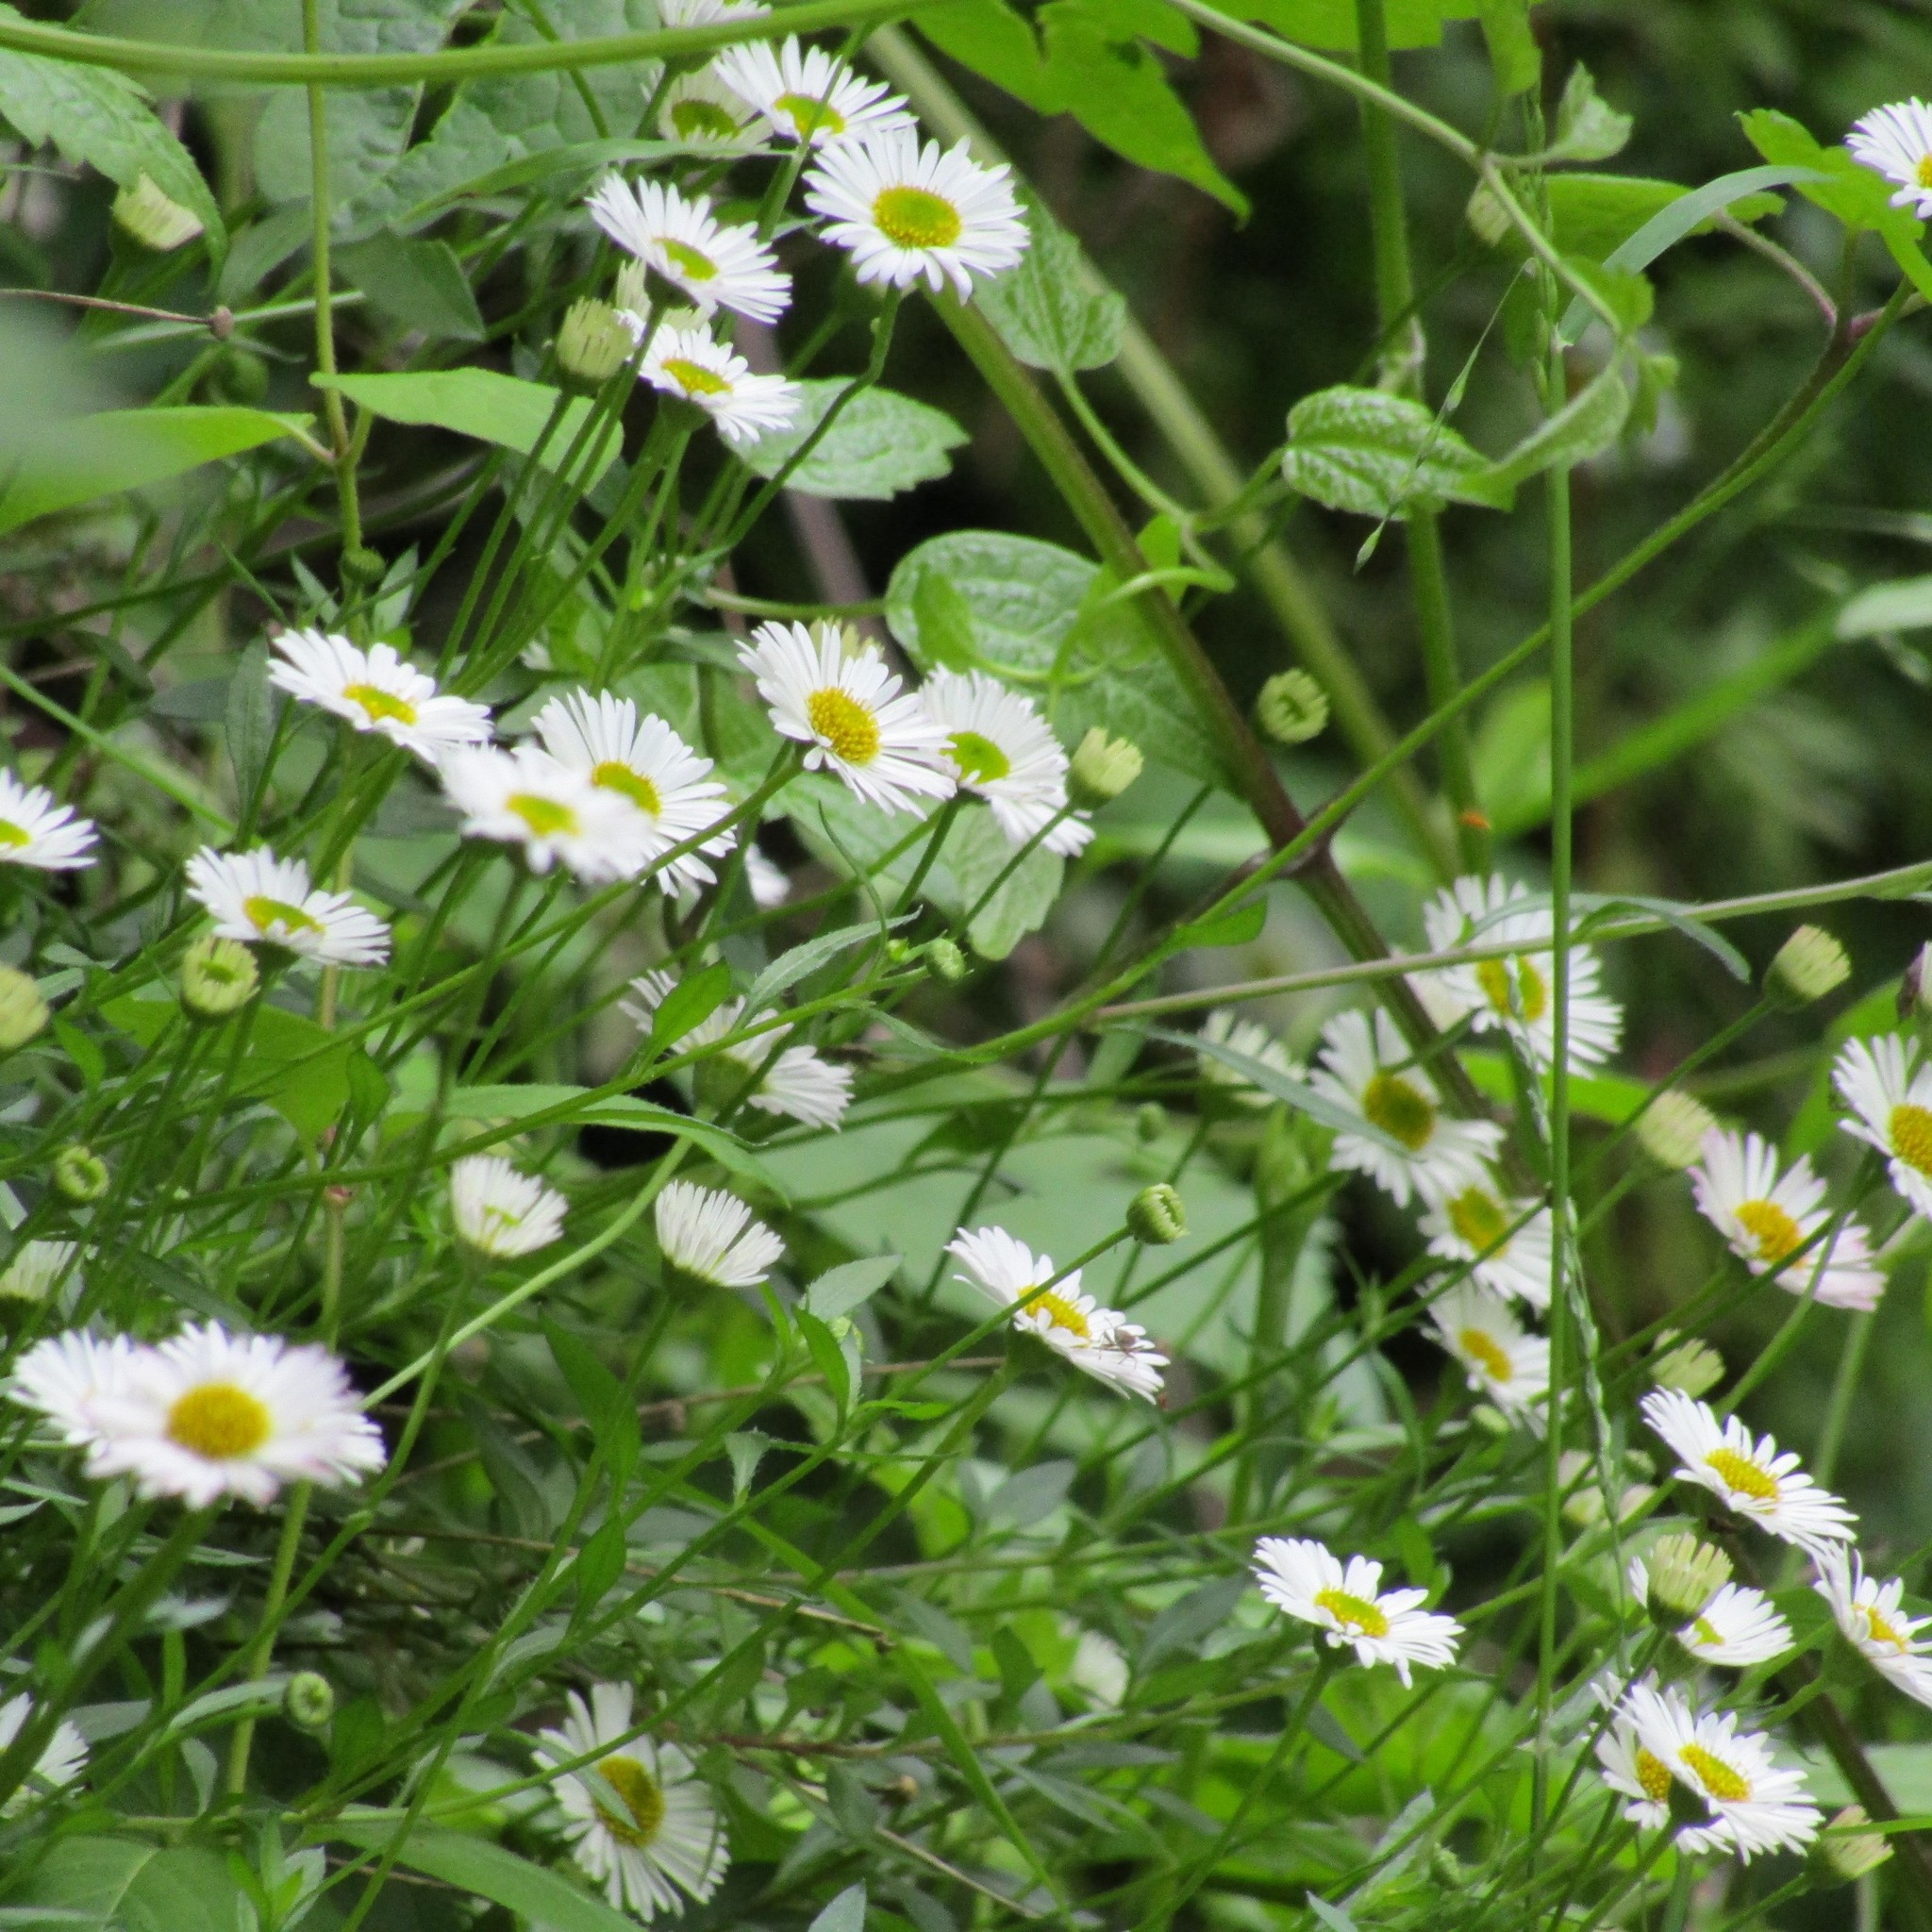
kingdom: Plantae
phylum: Tracheophyta
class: Magnoliopsida
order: Asterales
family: Asteraceae
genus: Erigeron
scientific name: Erigeron karvinskianus
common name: Mexican fleabane
